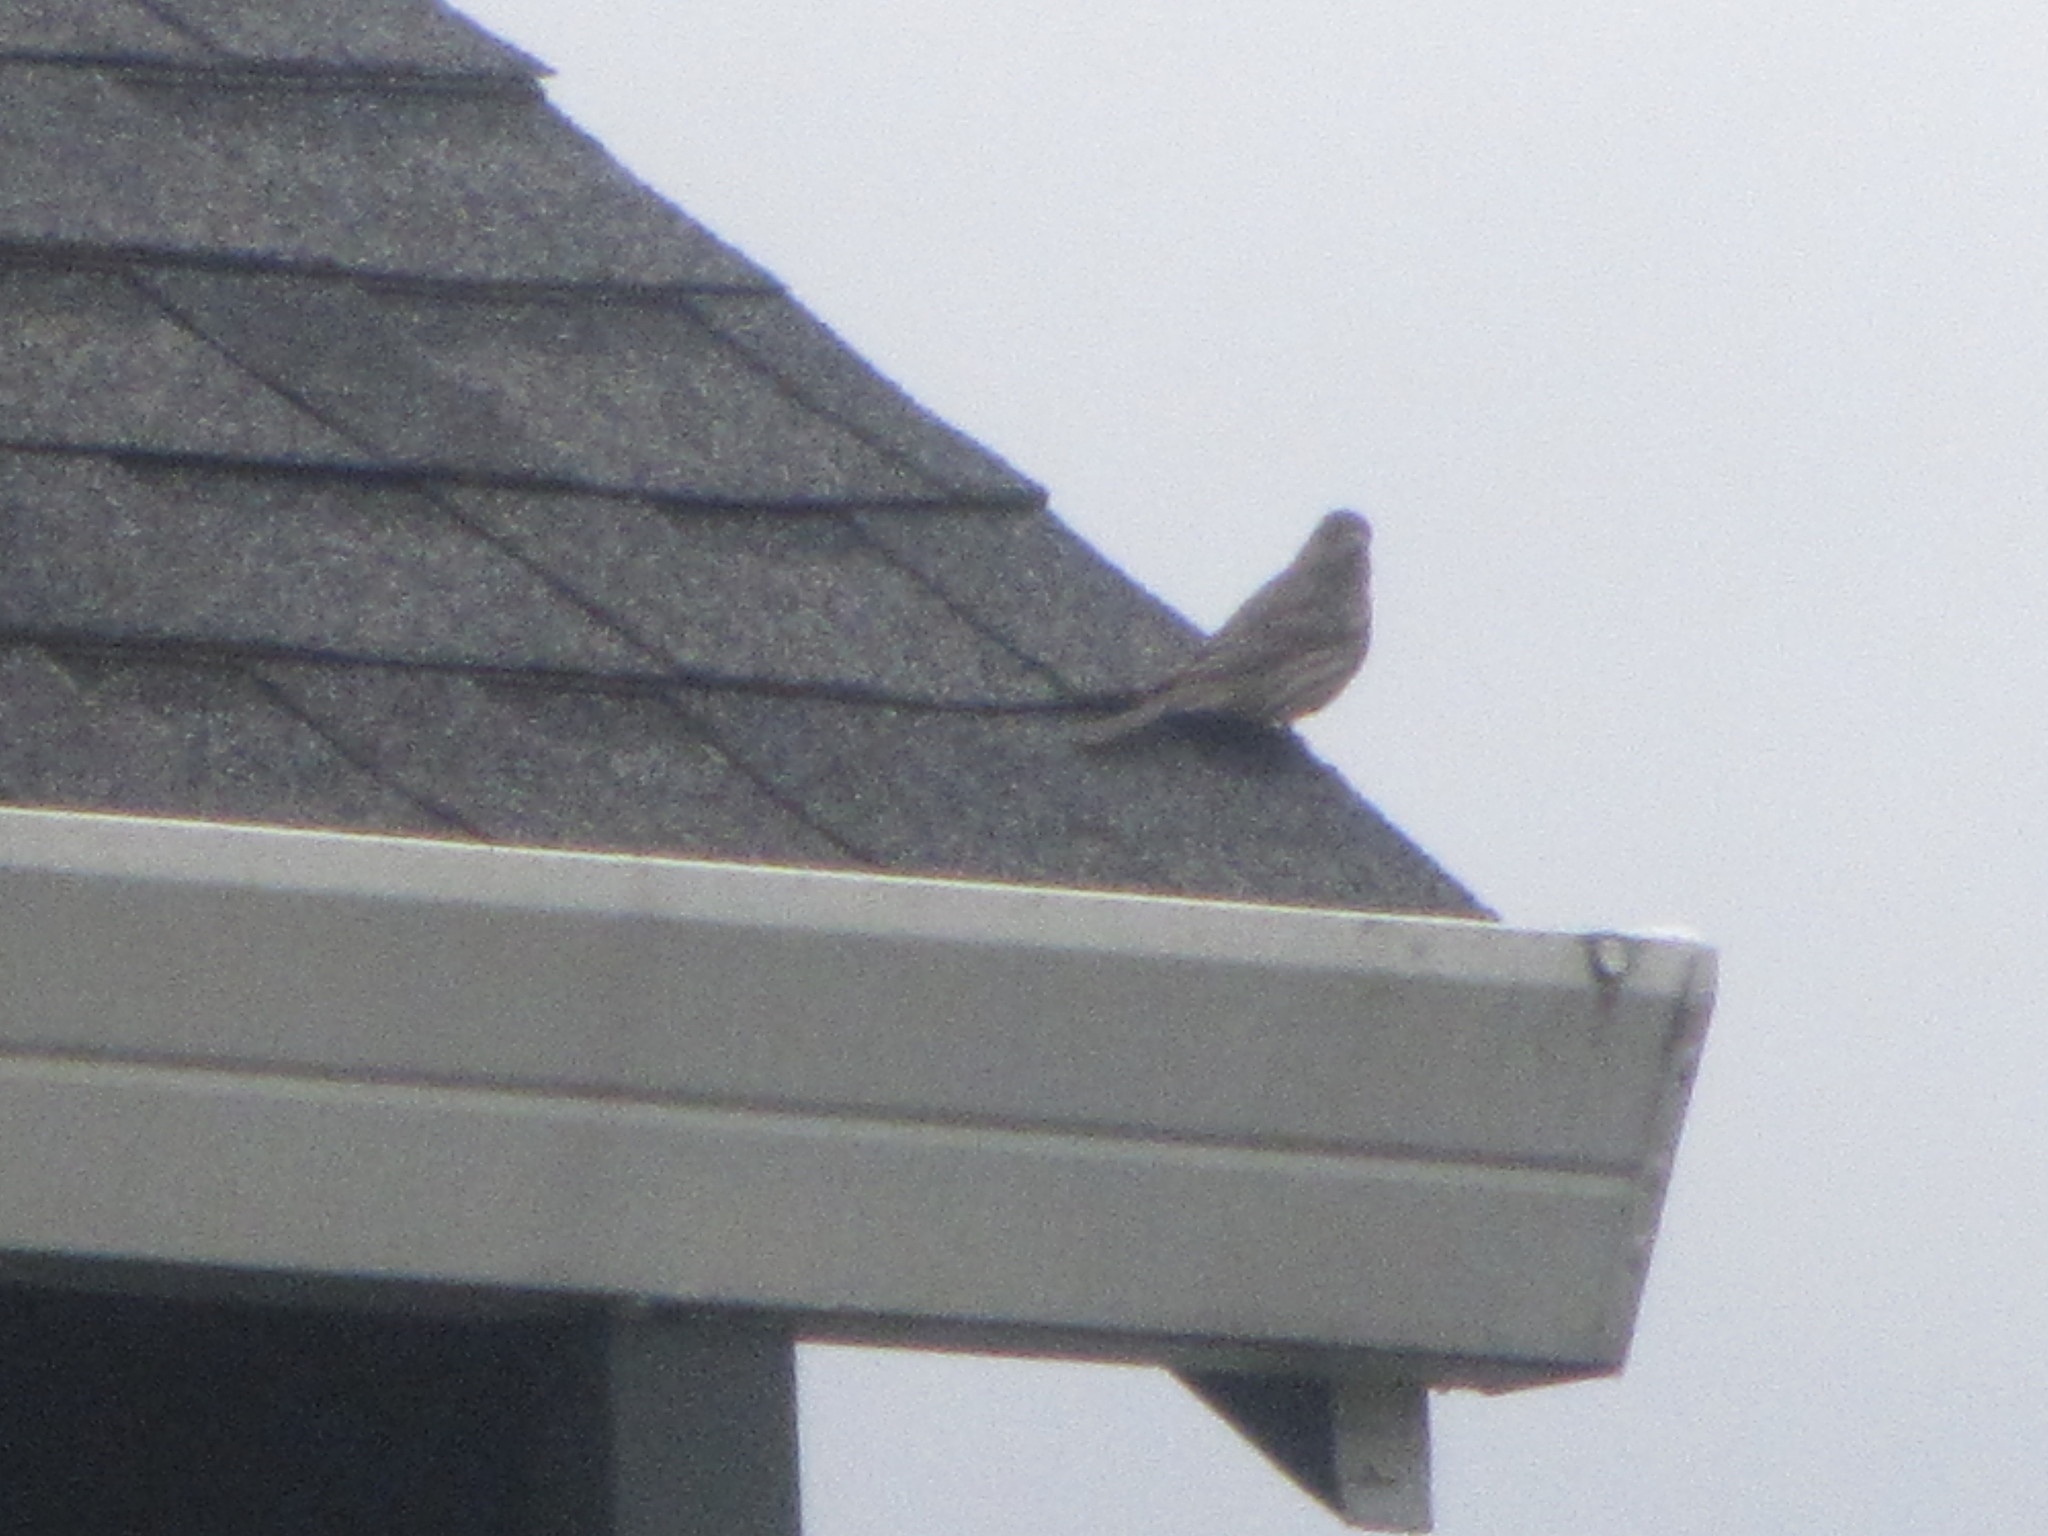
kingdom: Animalia
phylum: Chordata
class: Aves
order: Passeriformes
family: Fringillidae
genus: Haemorhous
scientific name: Haemorhous mexicanus
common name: House finch
